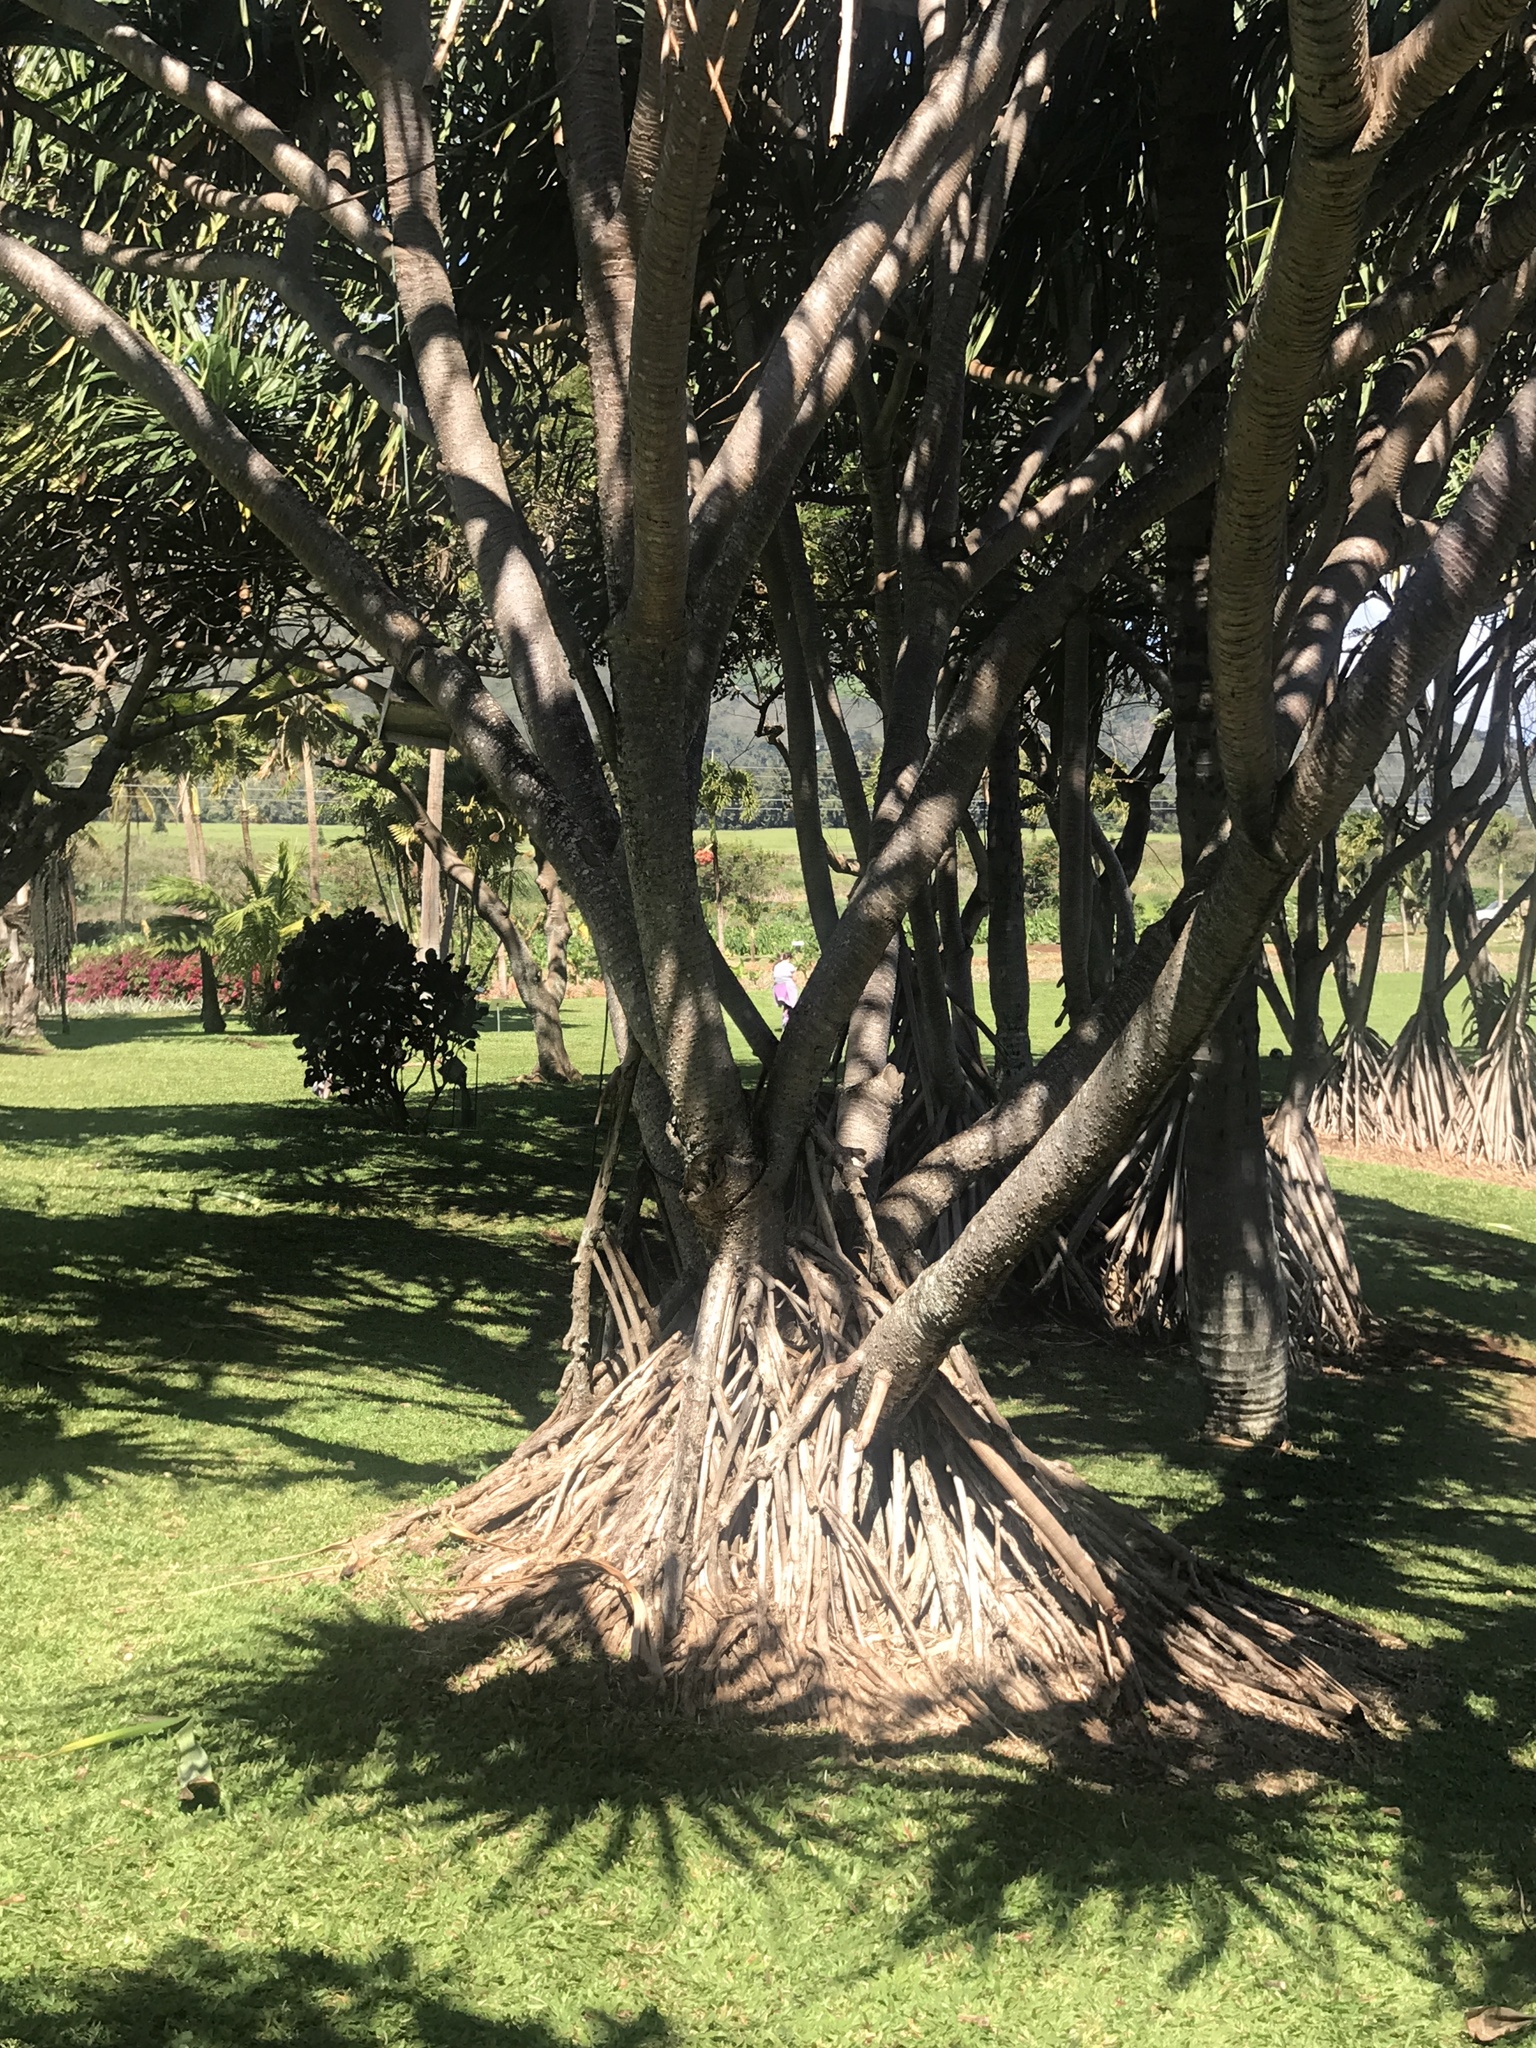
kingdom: Plantae
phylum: Tracheophyta
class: Liliopsida
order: Pandanales
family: Pandanaceae
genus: Pandanus
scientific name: Pandanus tectorius
